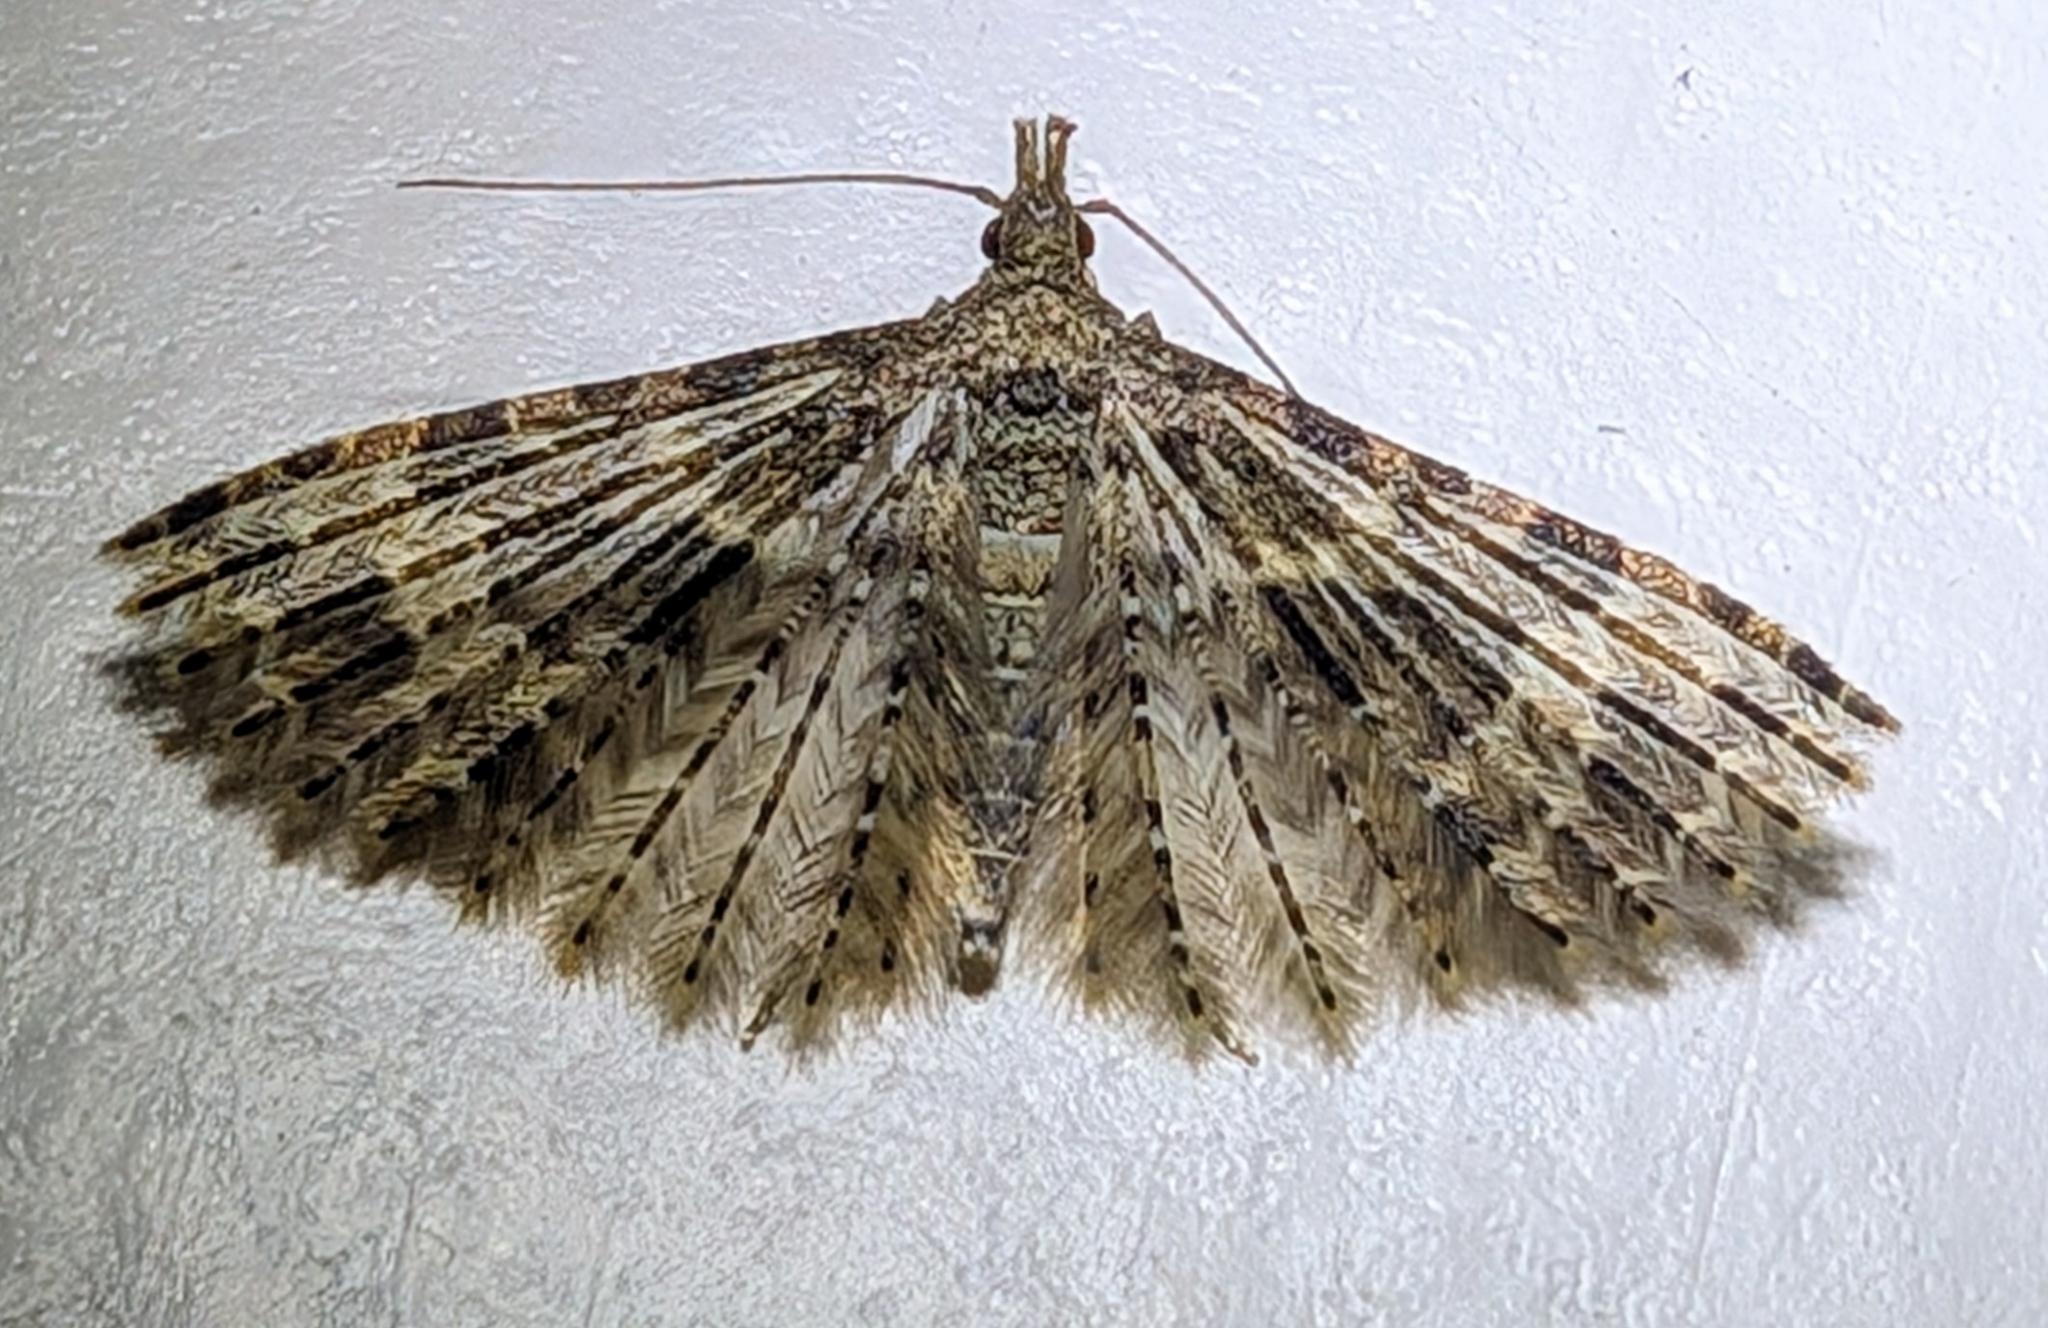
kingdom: Animalia
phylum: Arthropoda
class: Insecta
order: Lepidoptera
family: Alucitidae
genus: Alucita
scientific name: Alucita hexadactyla
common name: Twenty-plume moth
